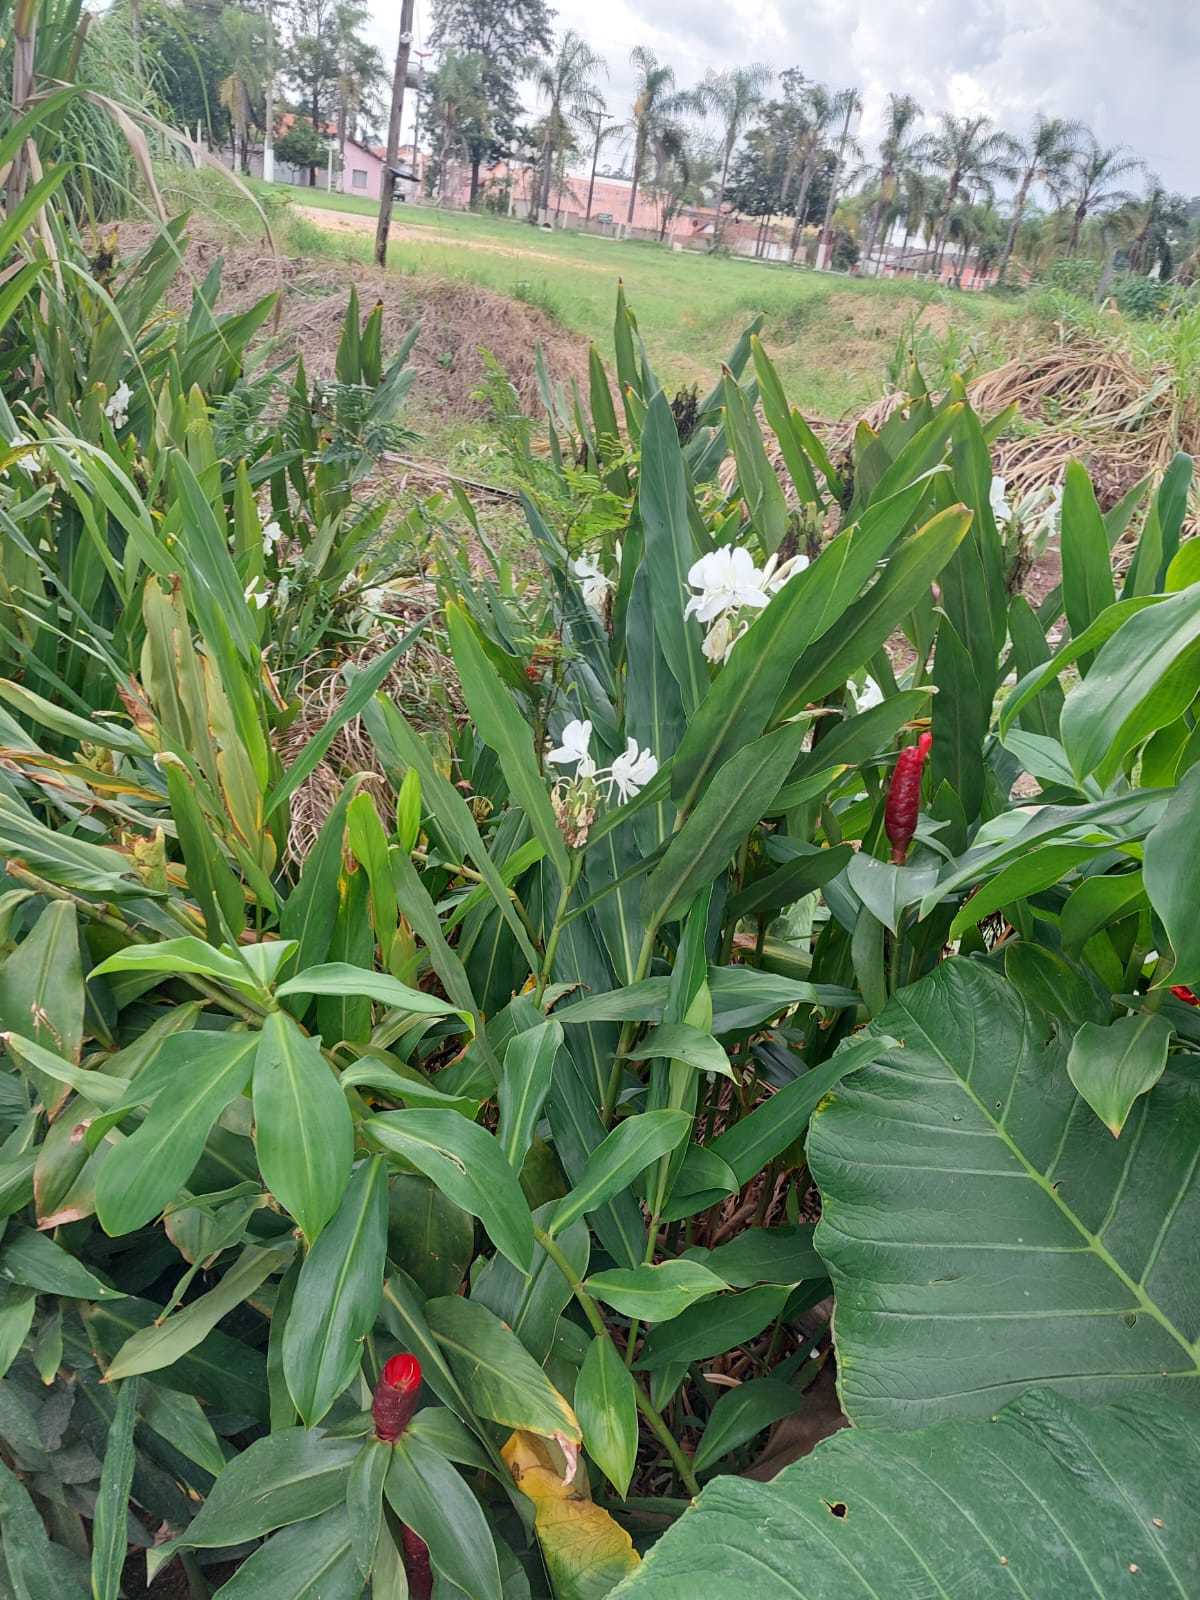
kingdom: Plantae
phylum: Tracheophyta
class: Liliopsida
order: Zingiberales
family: Zingiberaceae
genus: Hedychium
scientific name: Hedychium coronarium
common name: White garland-lily
